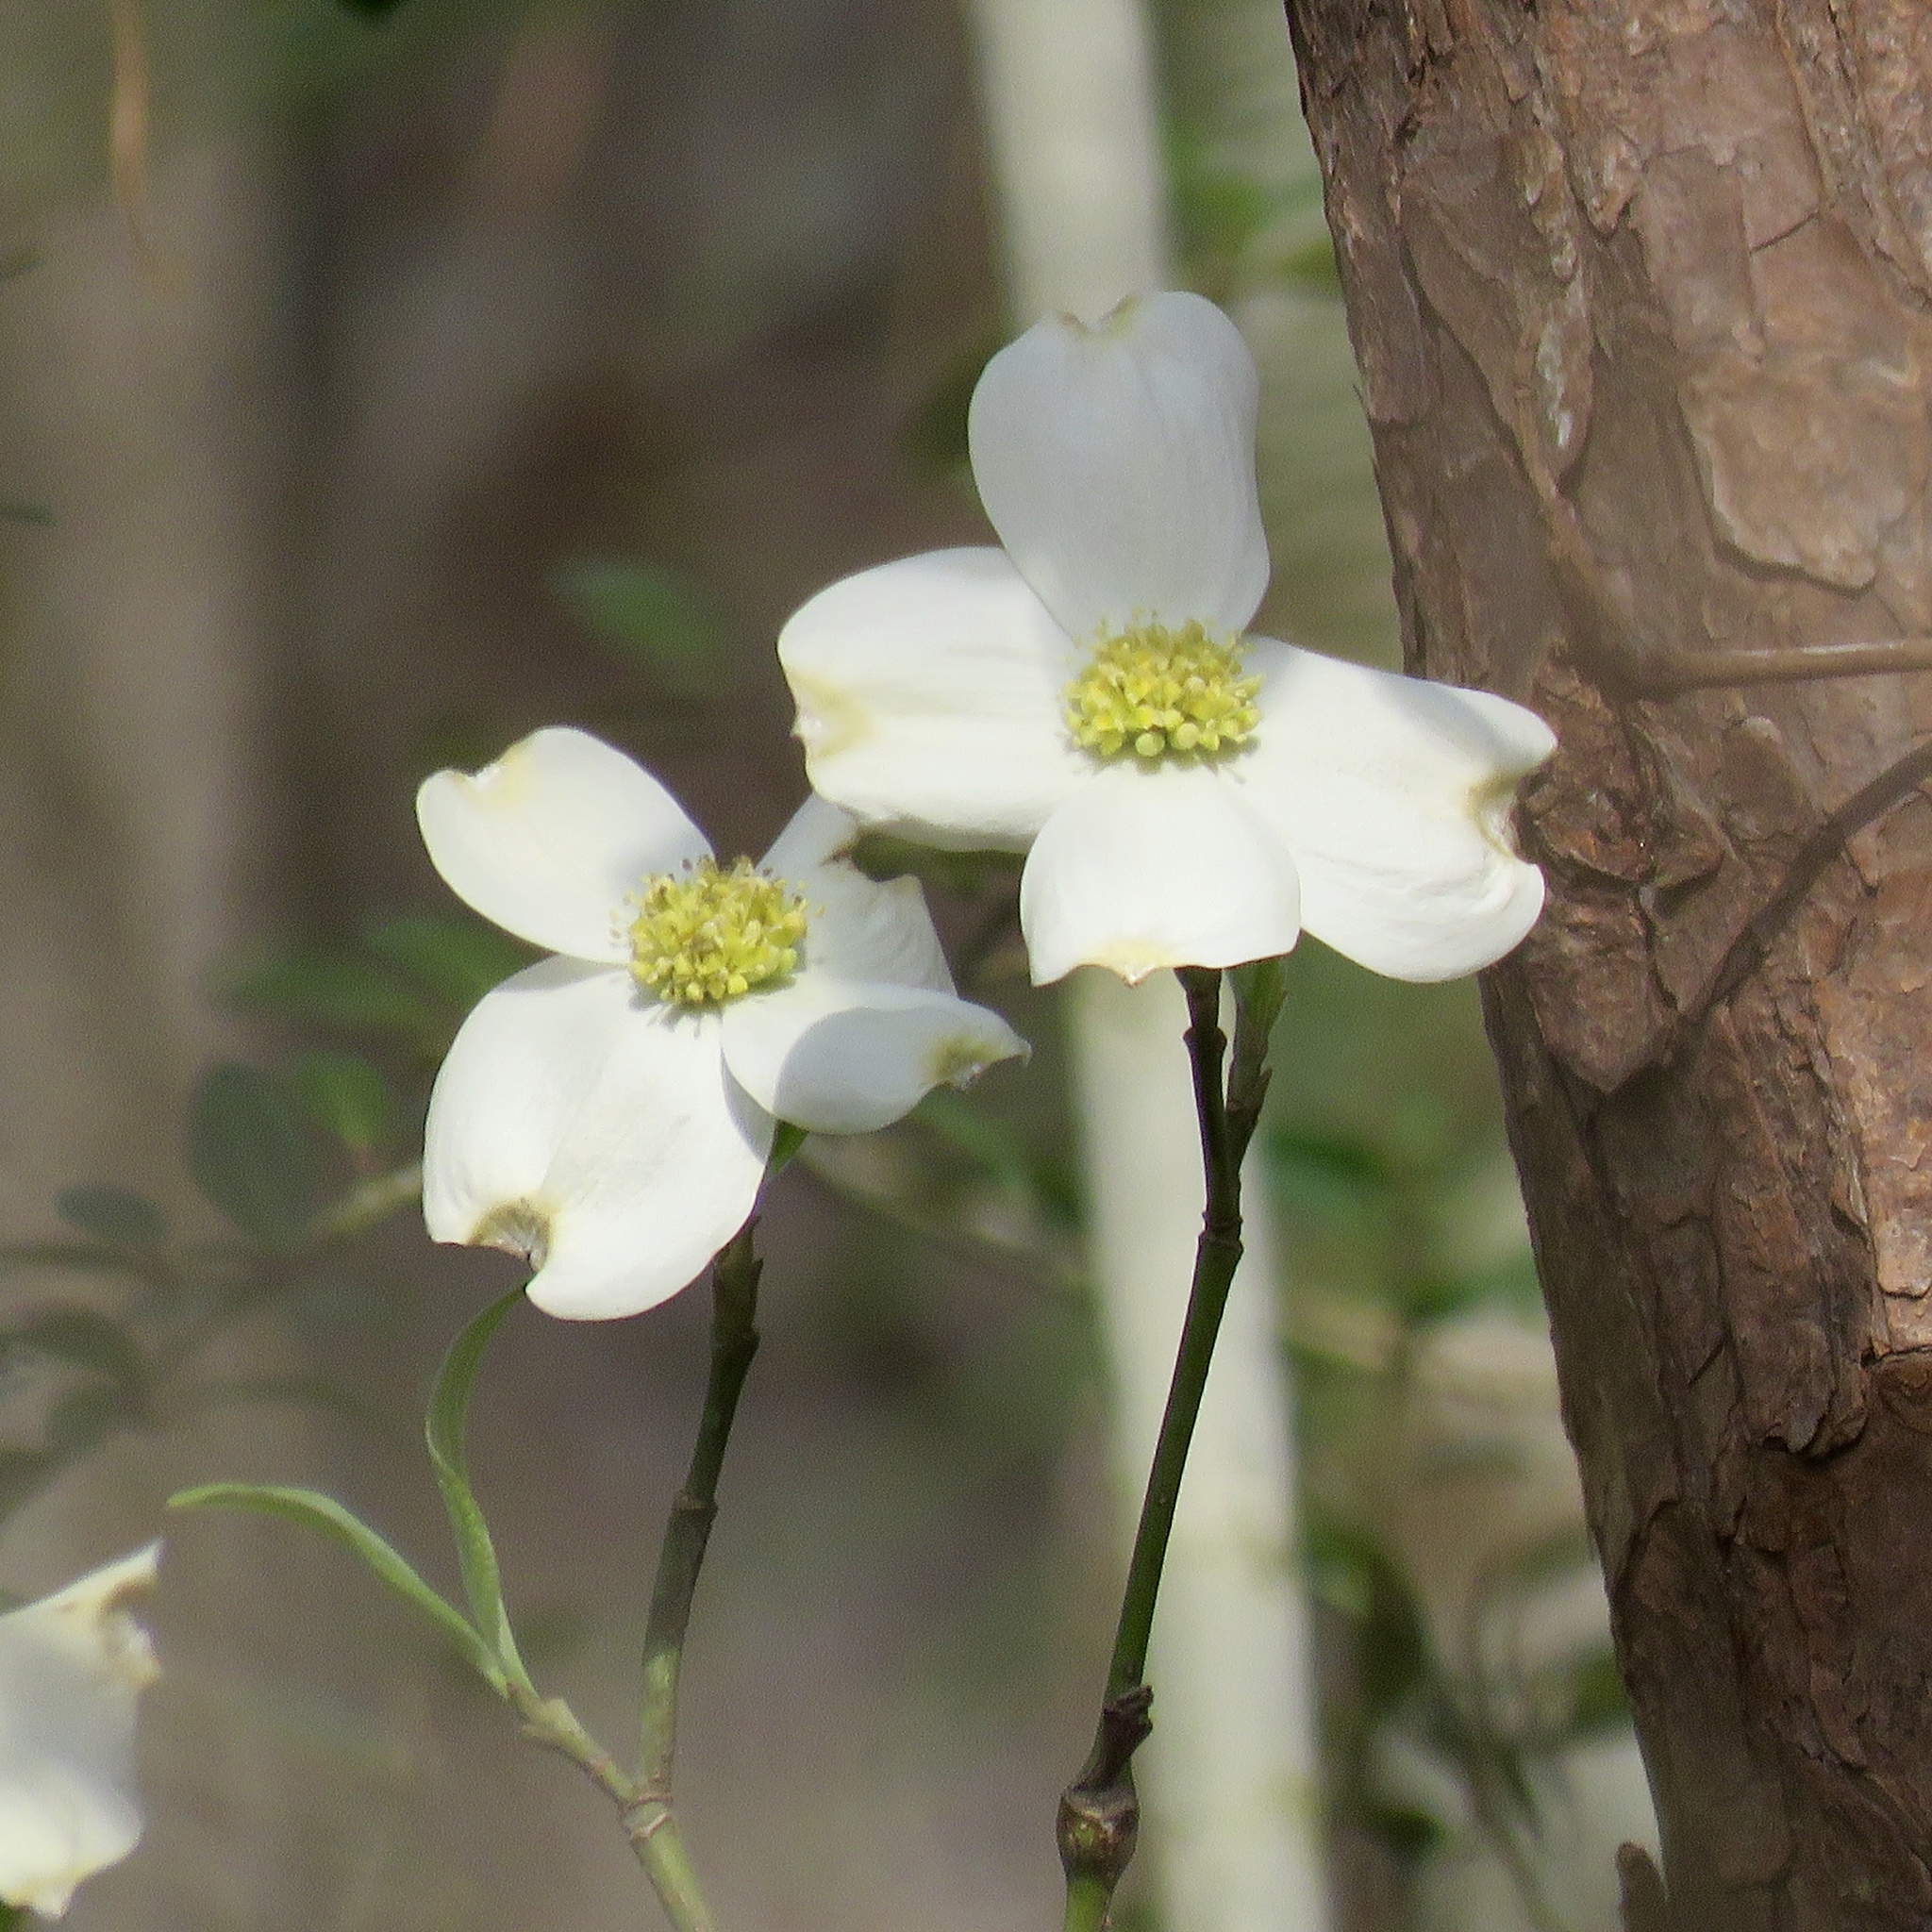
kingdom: Plantae
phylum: Tracheophyta
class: Magnoliopsida
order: Cornales
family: Cornaceae
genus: Cornus
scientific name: Cornus florida
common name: Flowering dogwood
